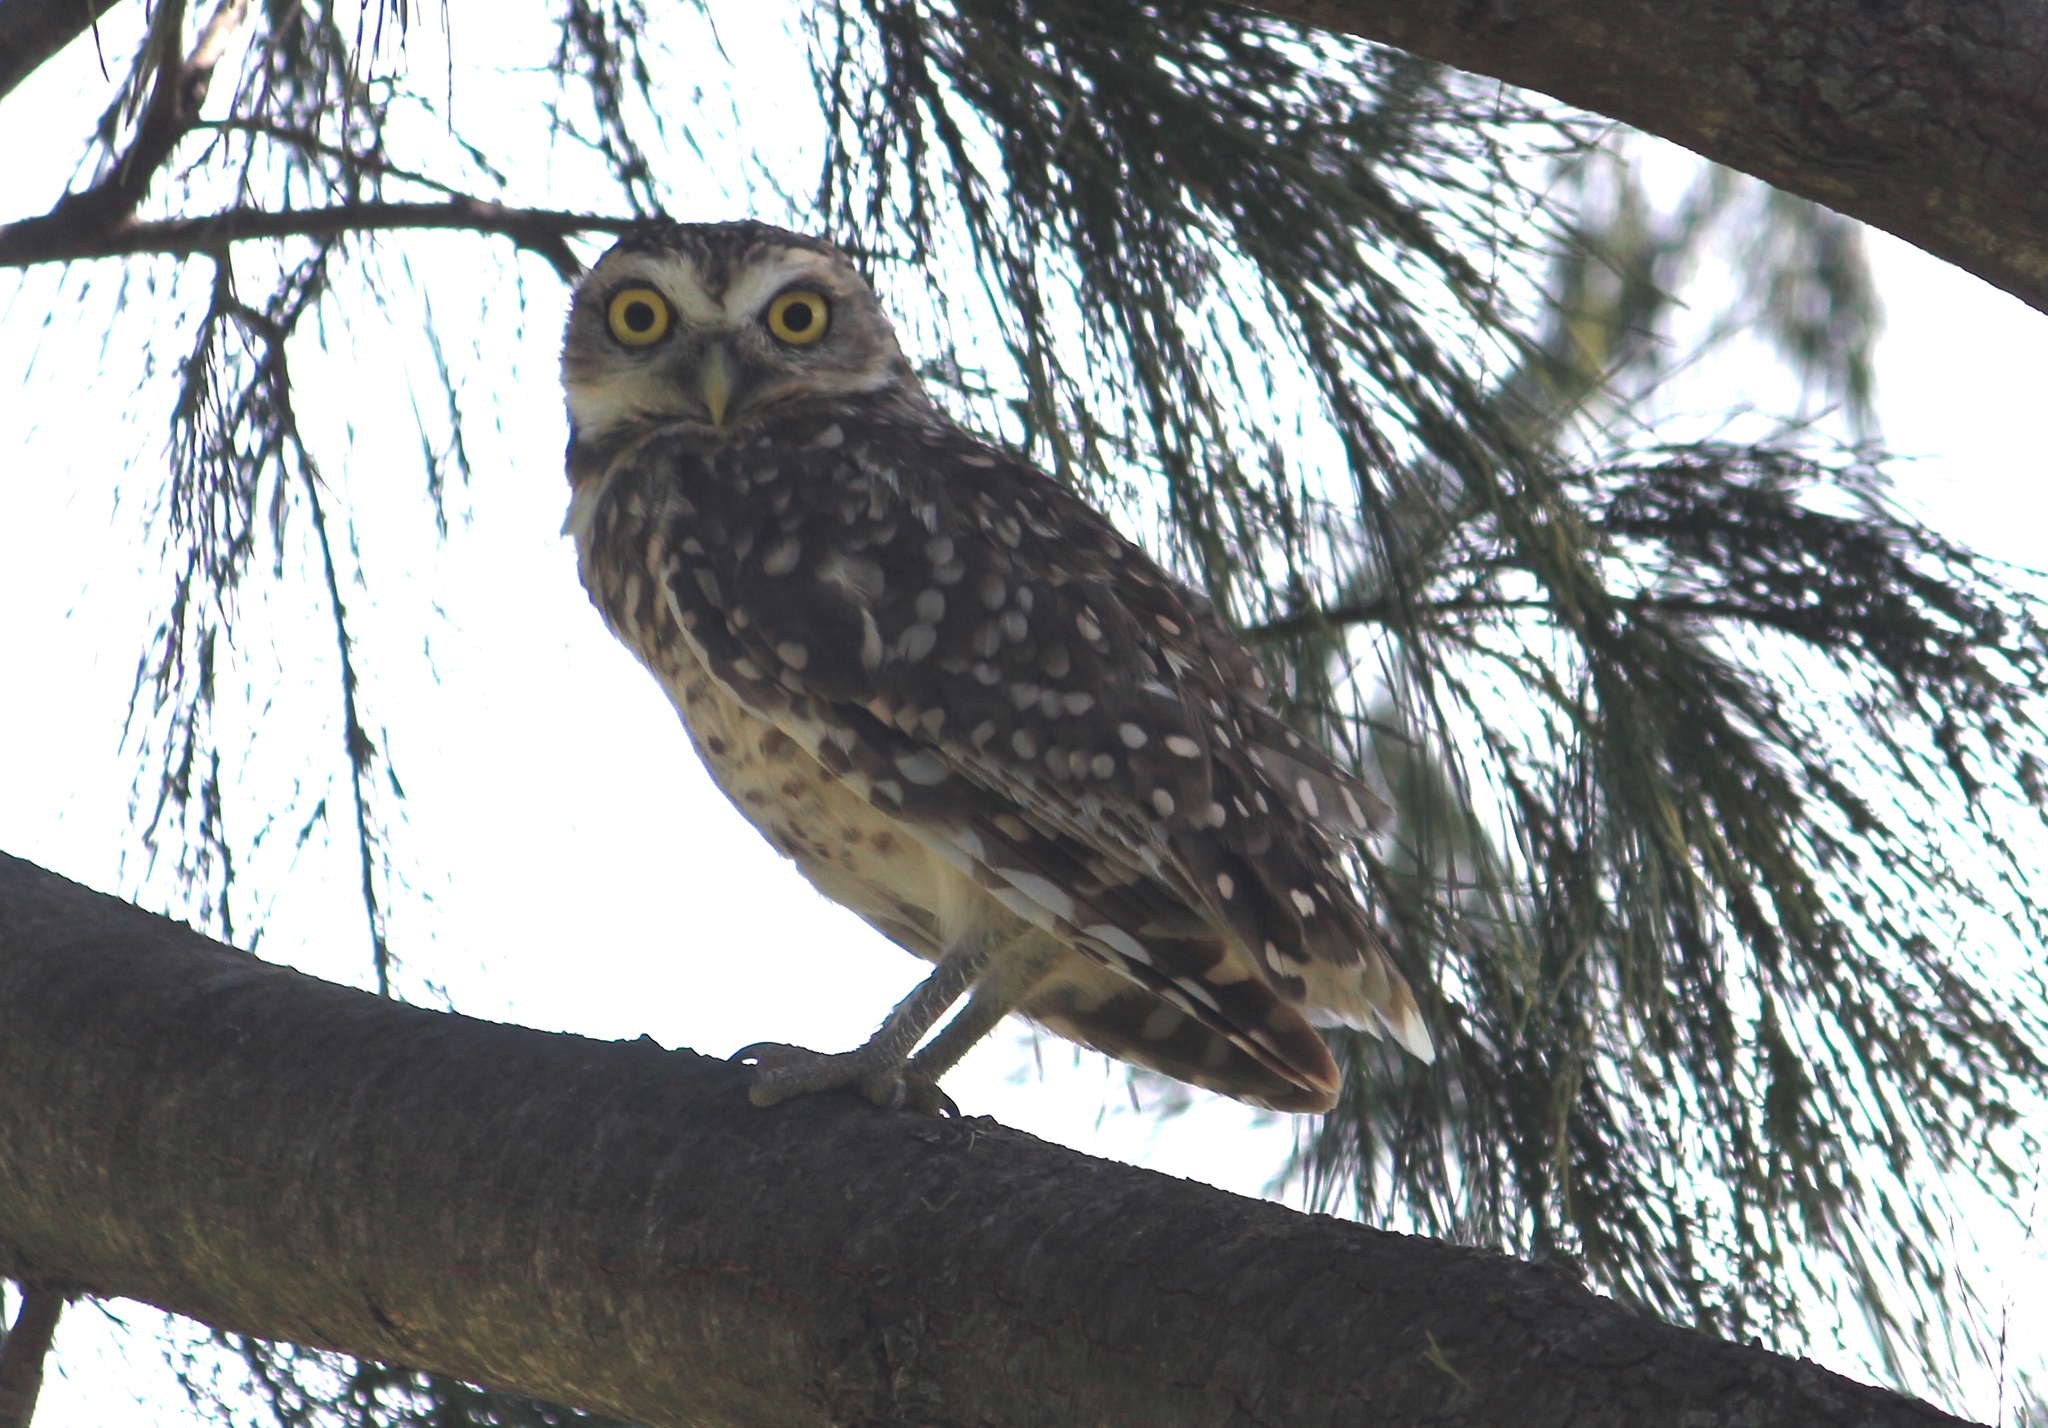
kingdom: Animalia
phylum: Chordata
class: Aves
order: Strigiformes
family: Strigidae
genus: Athene
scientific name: Athene cunicularia
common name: Burrowing owl
